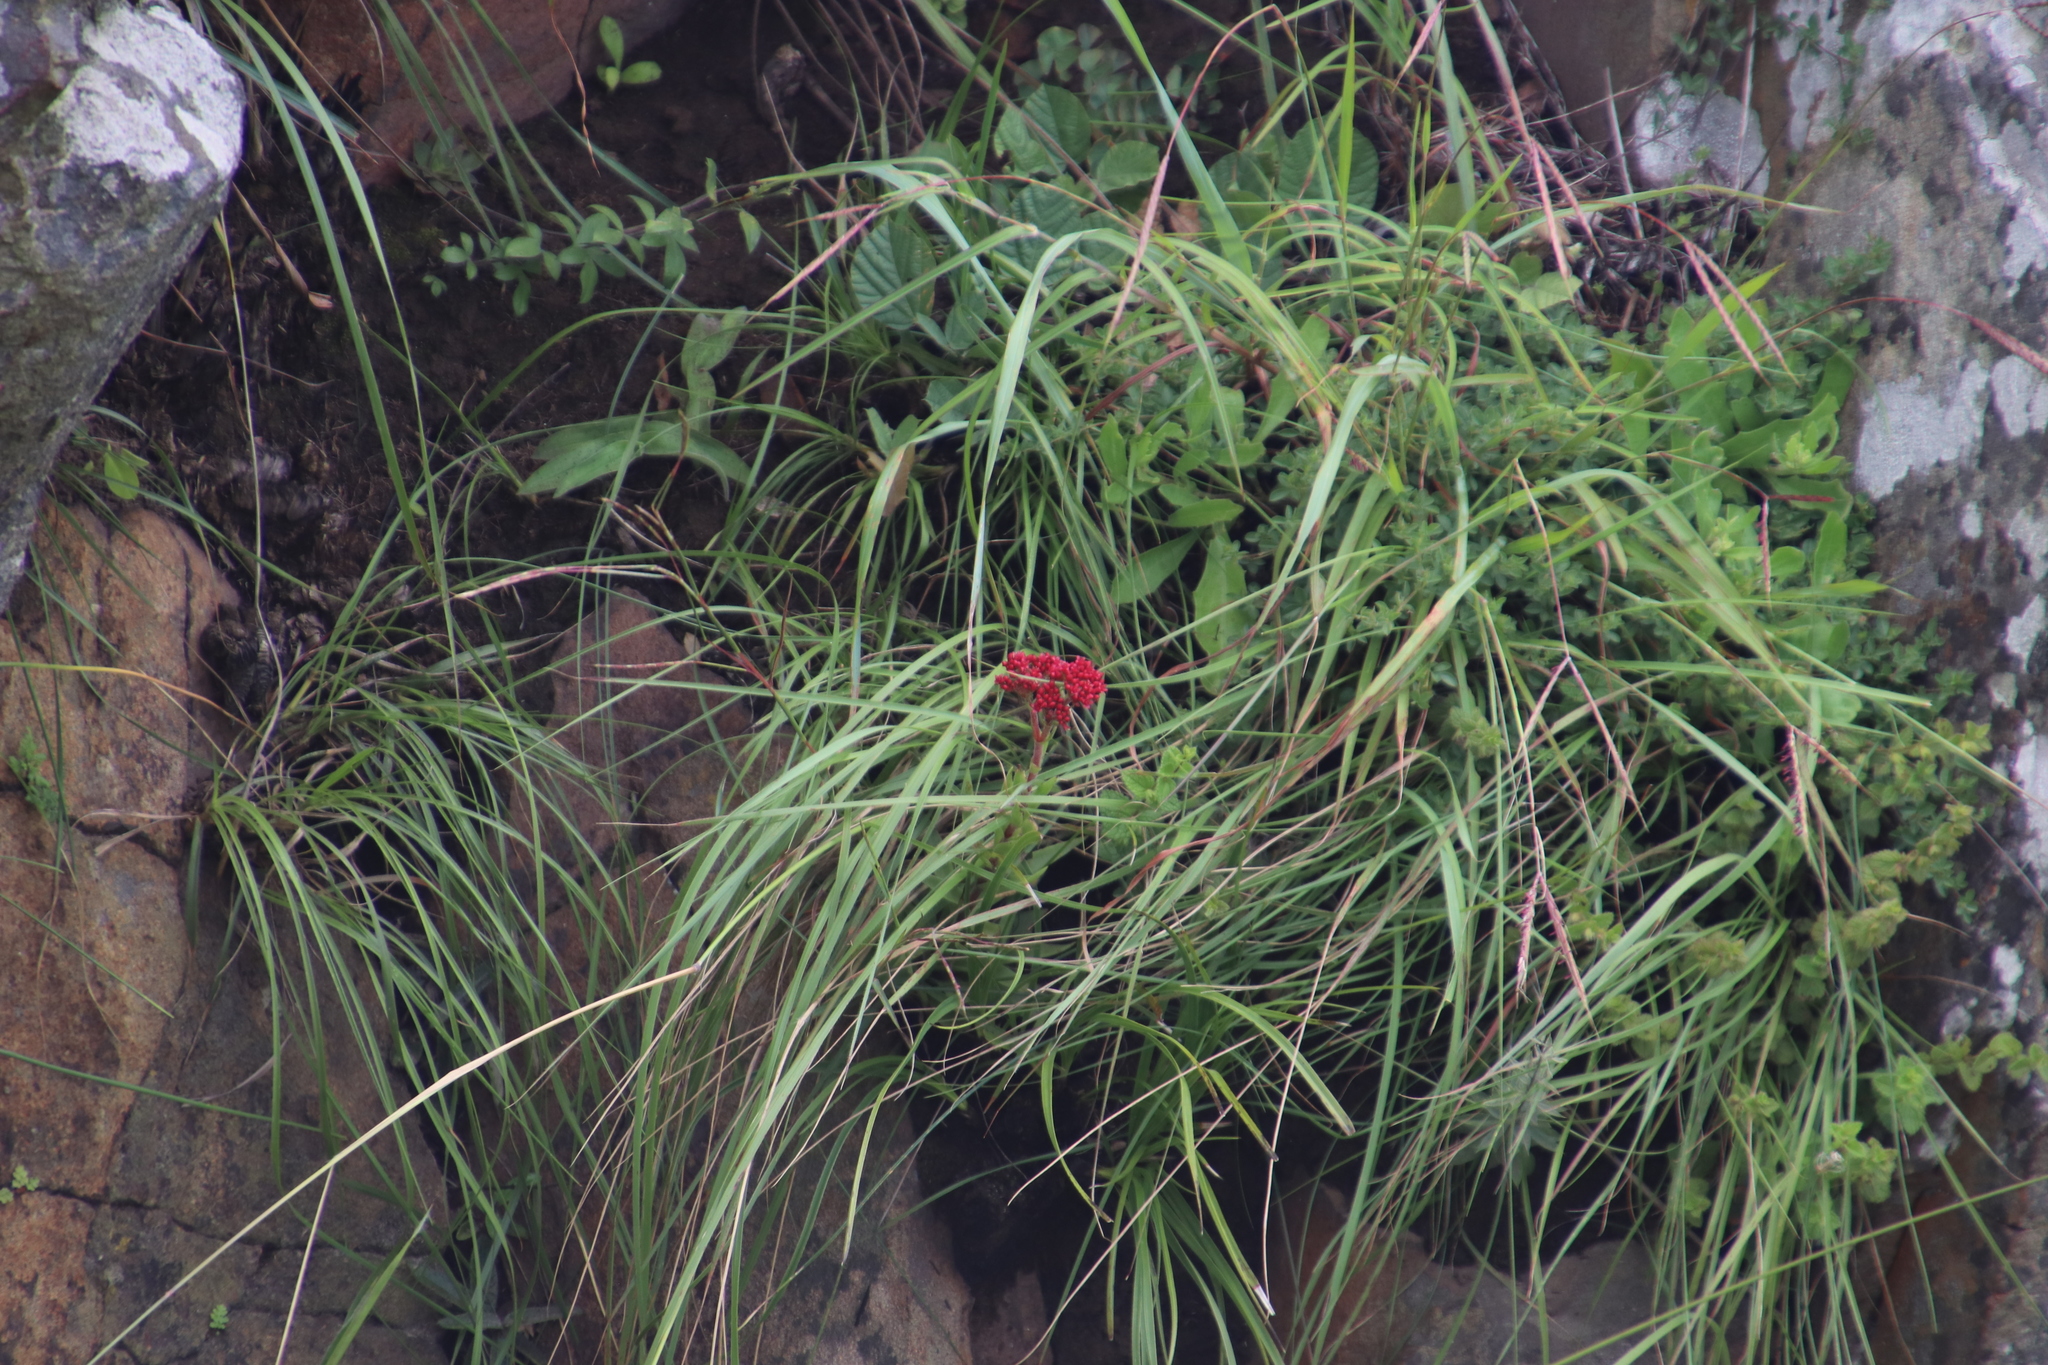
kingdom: Plantae
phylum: Tracheophyta
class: Magnoliopsida
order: Saxifragales
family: Crassulaceae
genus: Crassula
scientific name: Crassula alba
